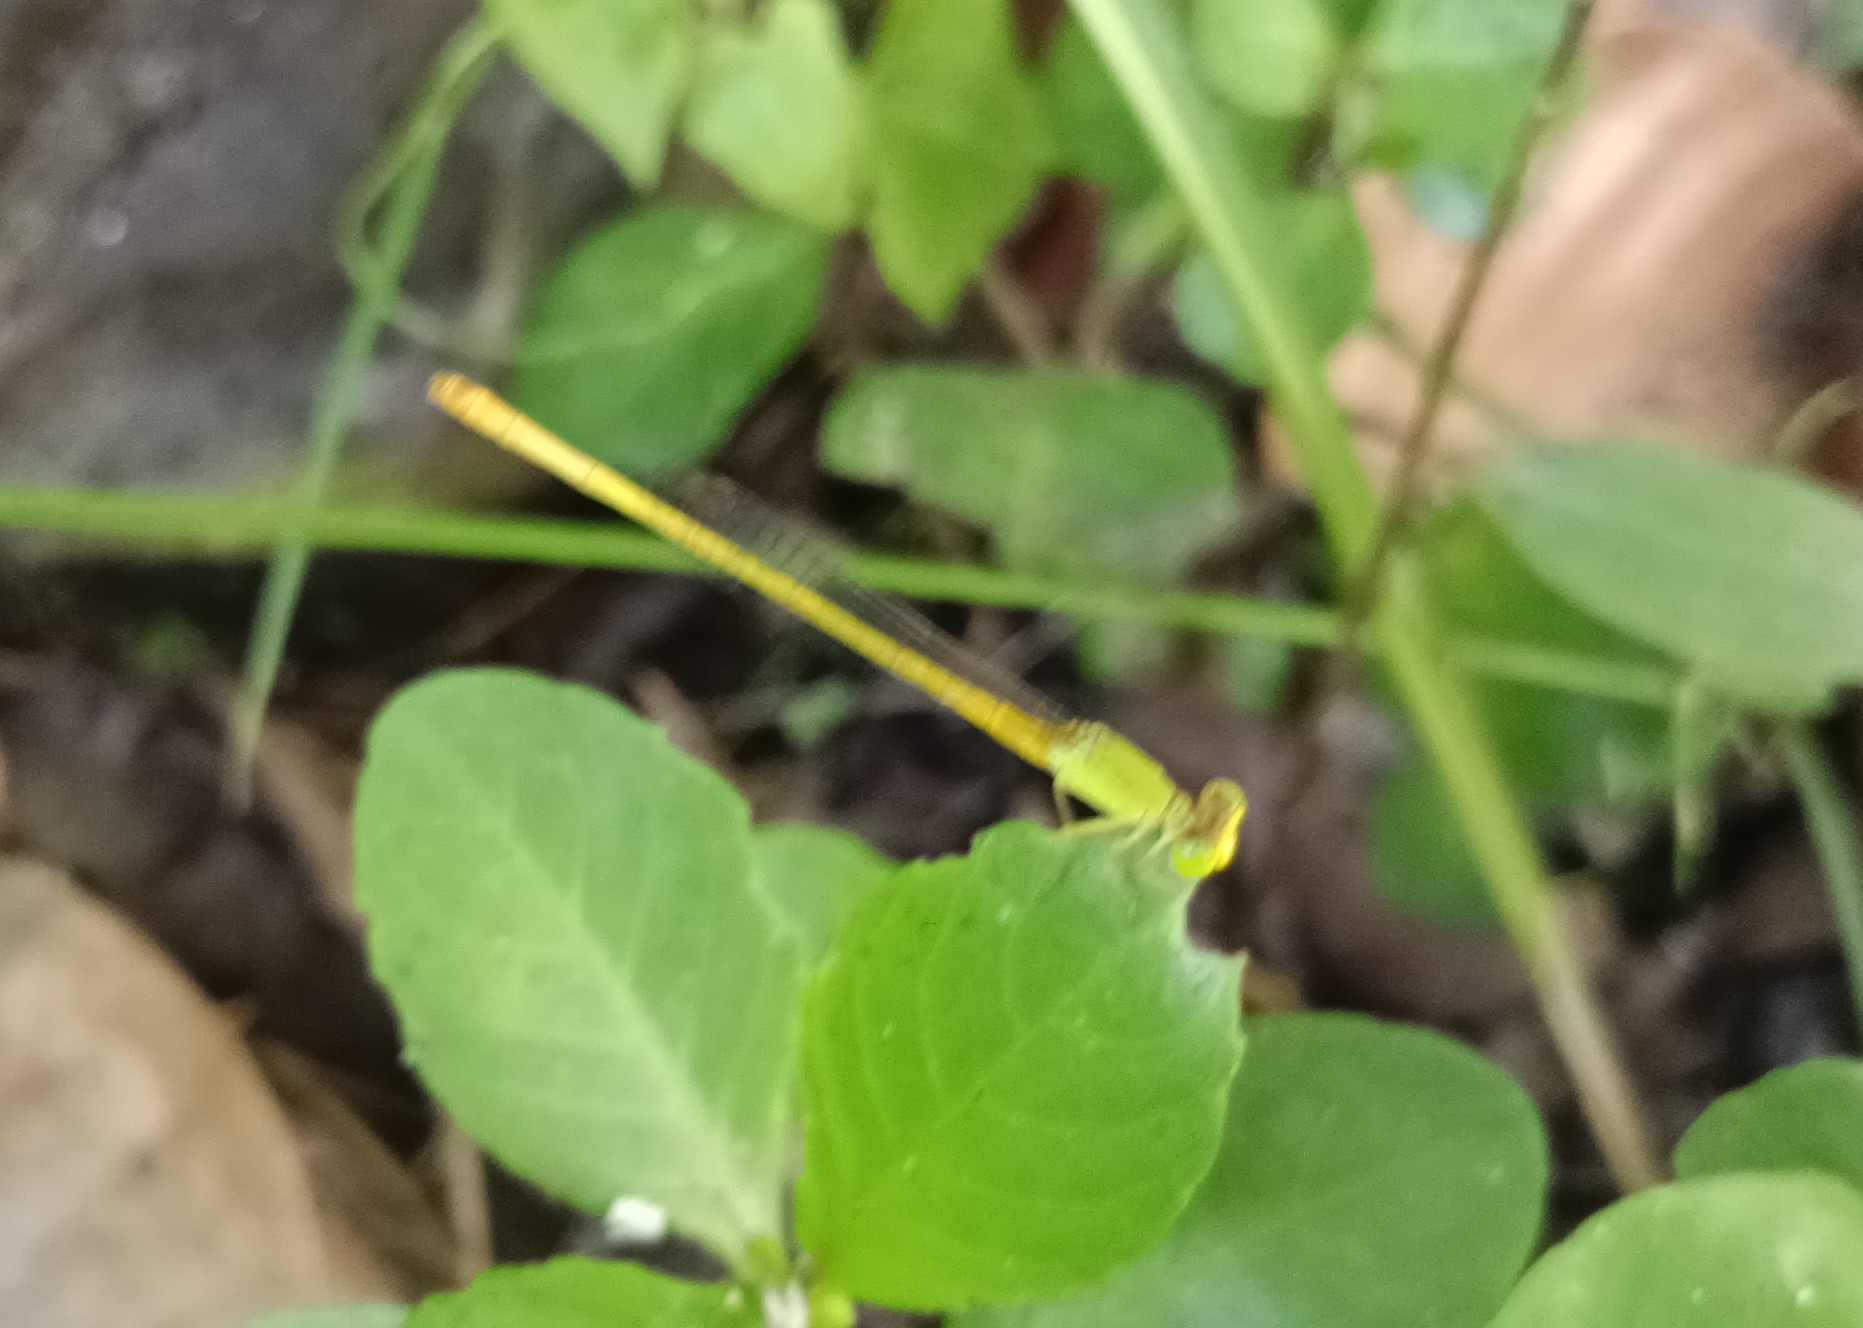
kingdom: Animalia
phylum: Arthropoda
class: Insecta
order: Odonata
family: Coenagrionidae
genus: Ceriagrion
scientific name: Ceriagrion coromandelianum
